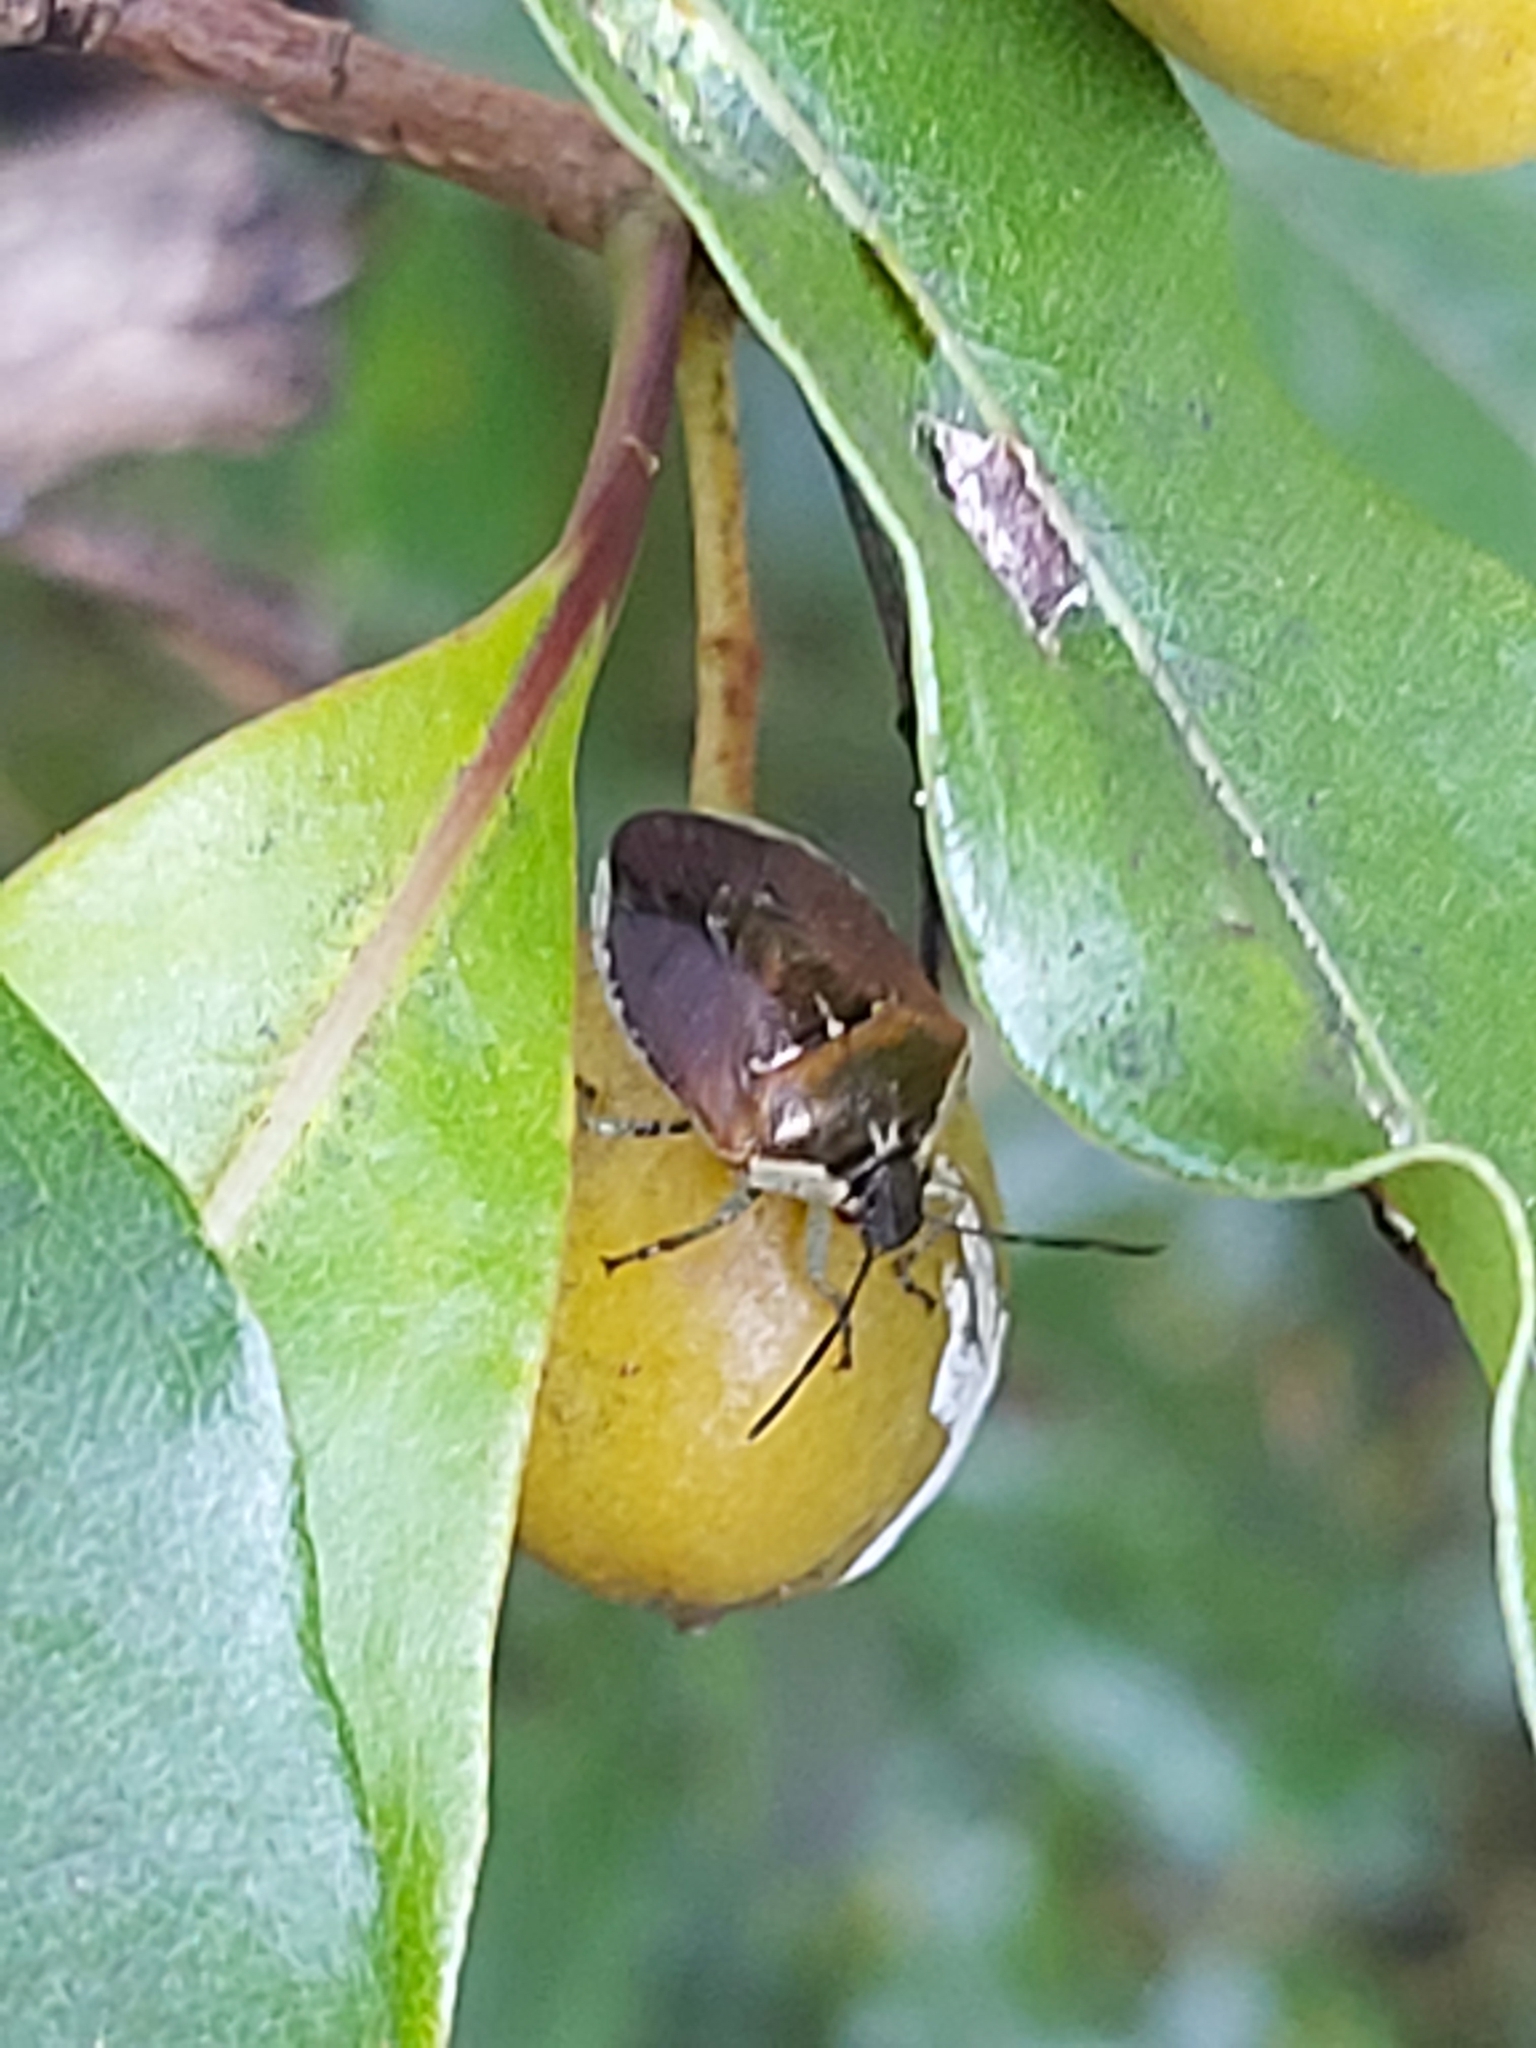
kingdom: Animalia
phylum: Arthropoda
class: Insecta
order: Hemiptera
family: Pentatomidae
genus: Monteithiella
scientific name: Monteithiella
